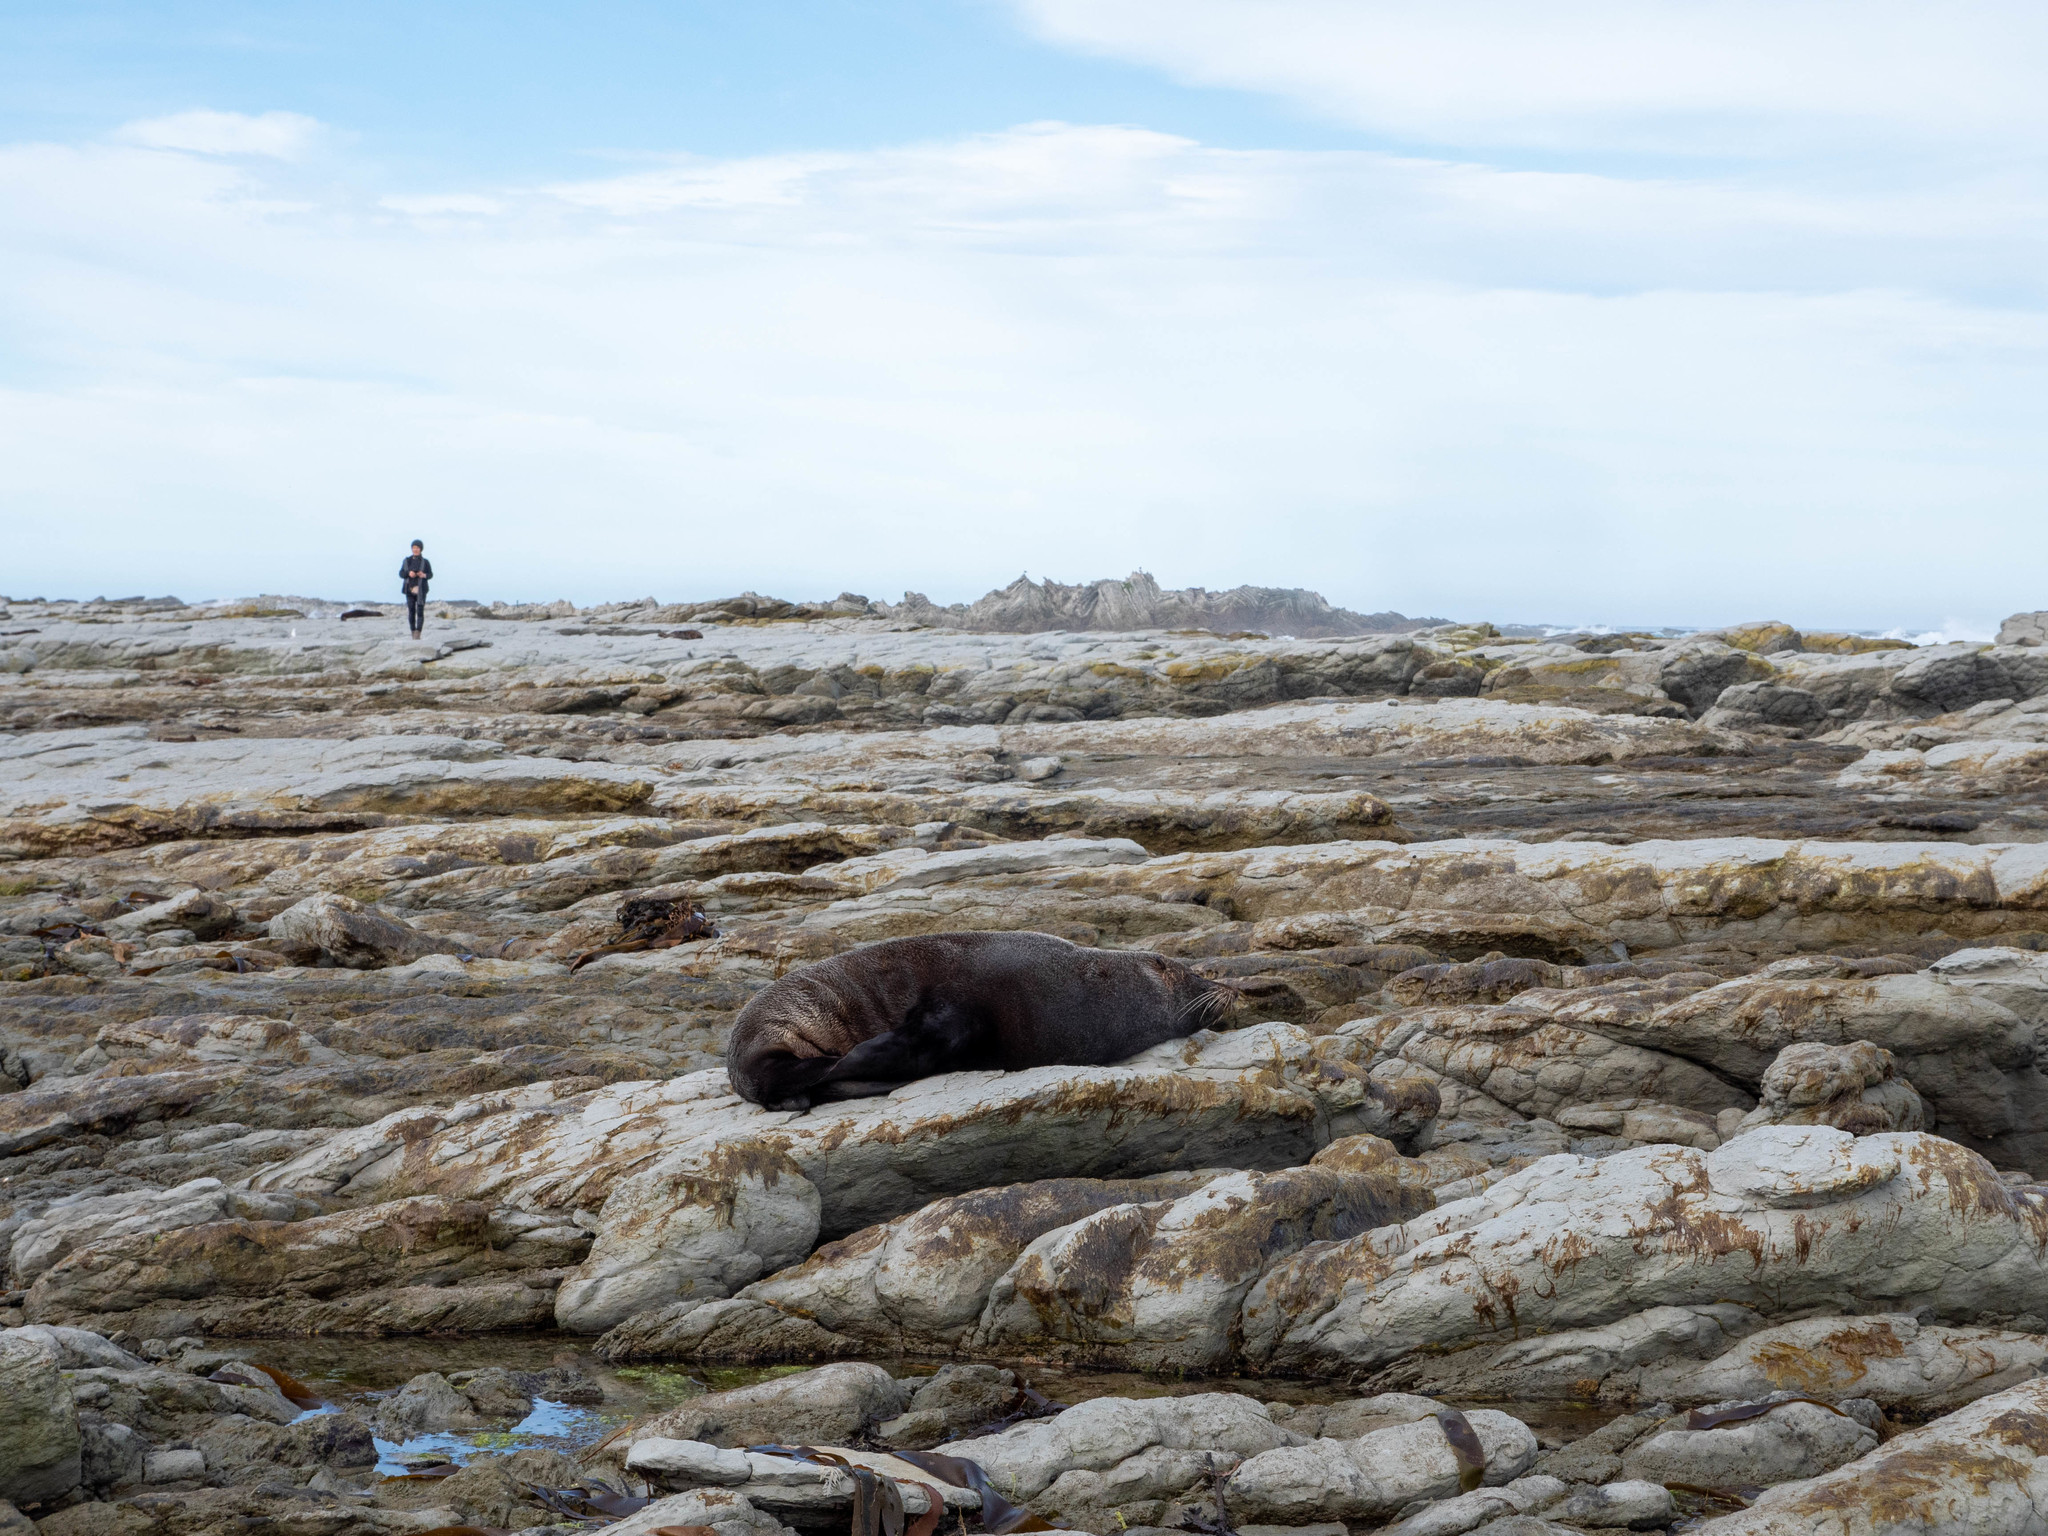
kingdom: Animalia
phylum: Chordata
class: Mammalia
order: Carnivora
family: Otariidae
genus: Arctocephalus
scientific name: Arctocephalus forsteri
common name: New zealand fur seal
